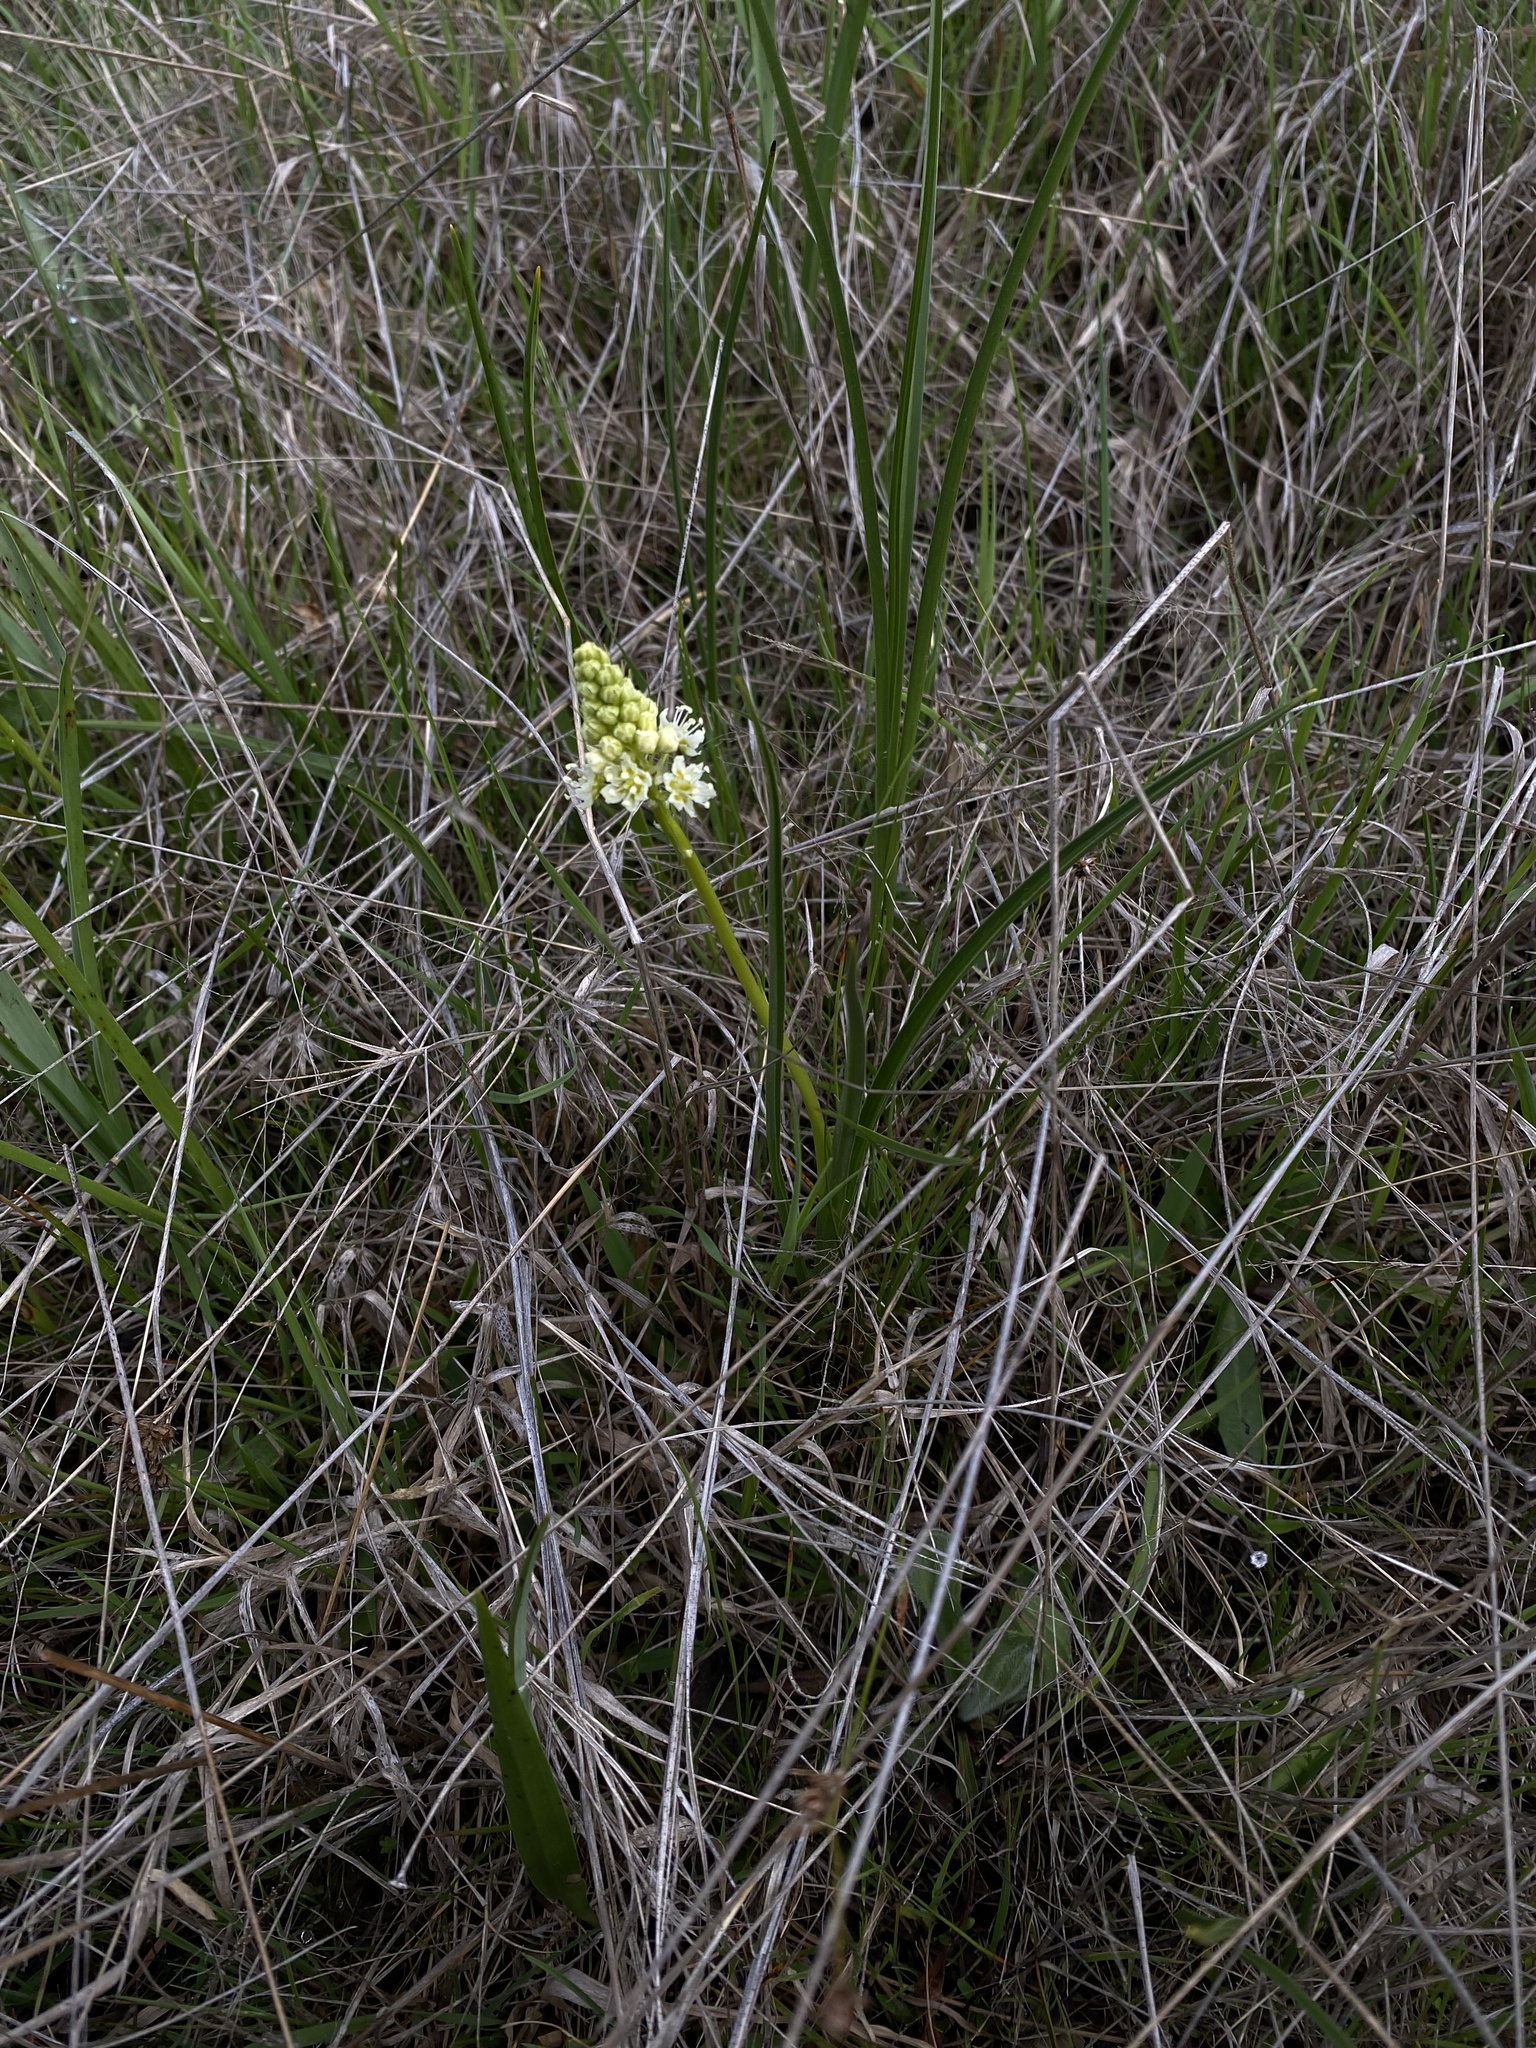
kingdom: Plantae
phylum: Tracheophyta
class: Liliopsida
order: Liliales
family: Melanthiaceae
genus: Toxicoscordion
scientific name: Toxicoscordion venenosum
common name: Meadow death camas
